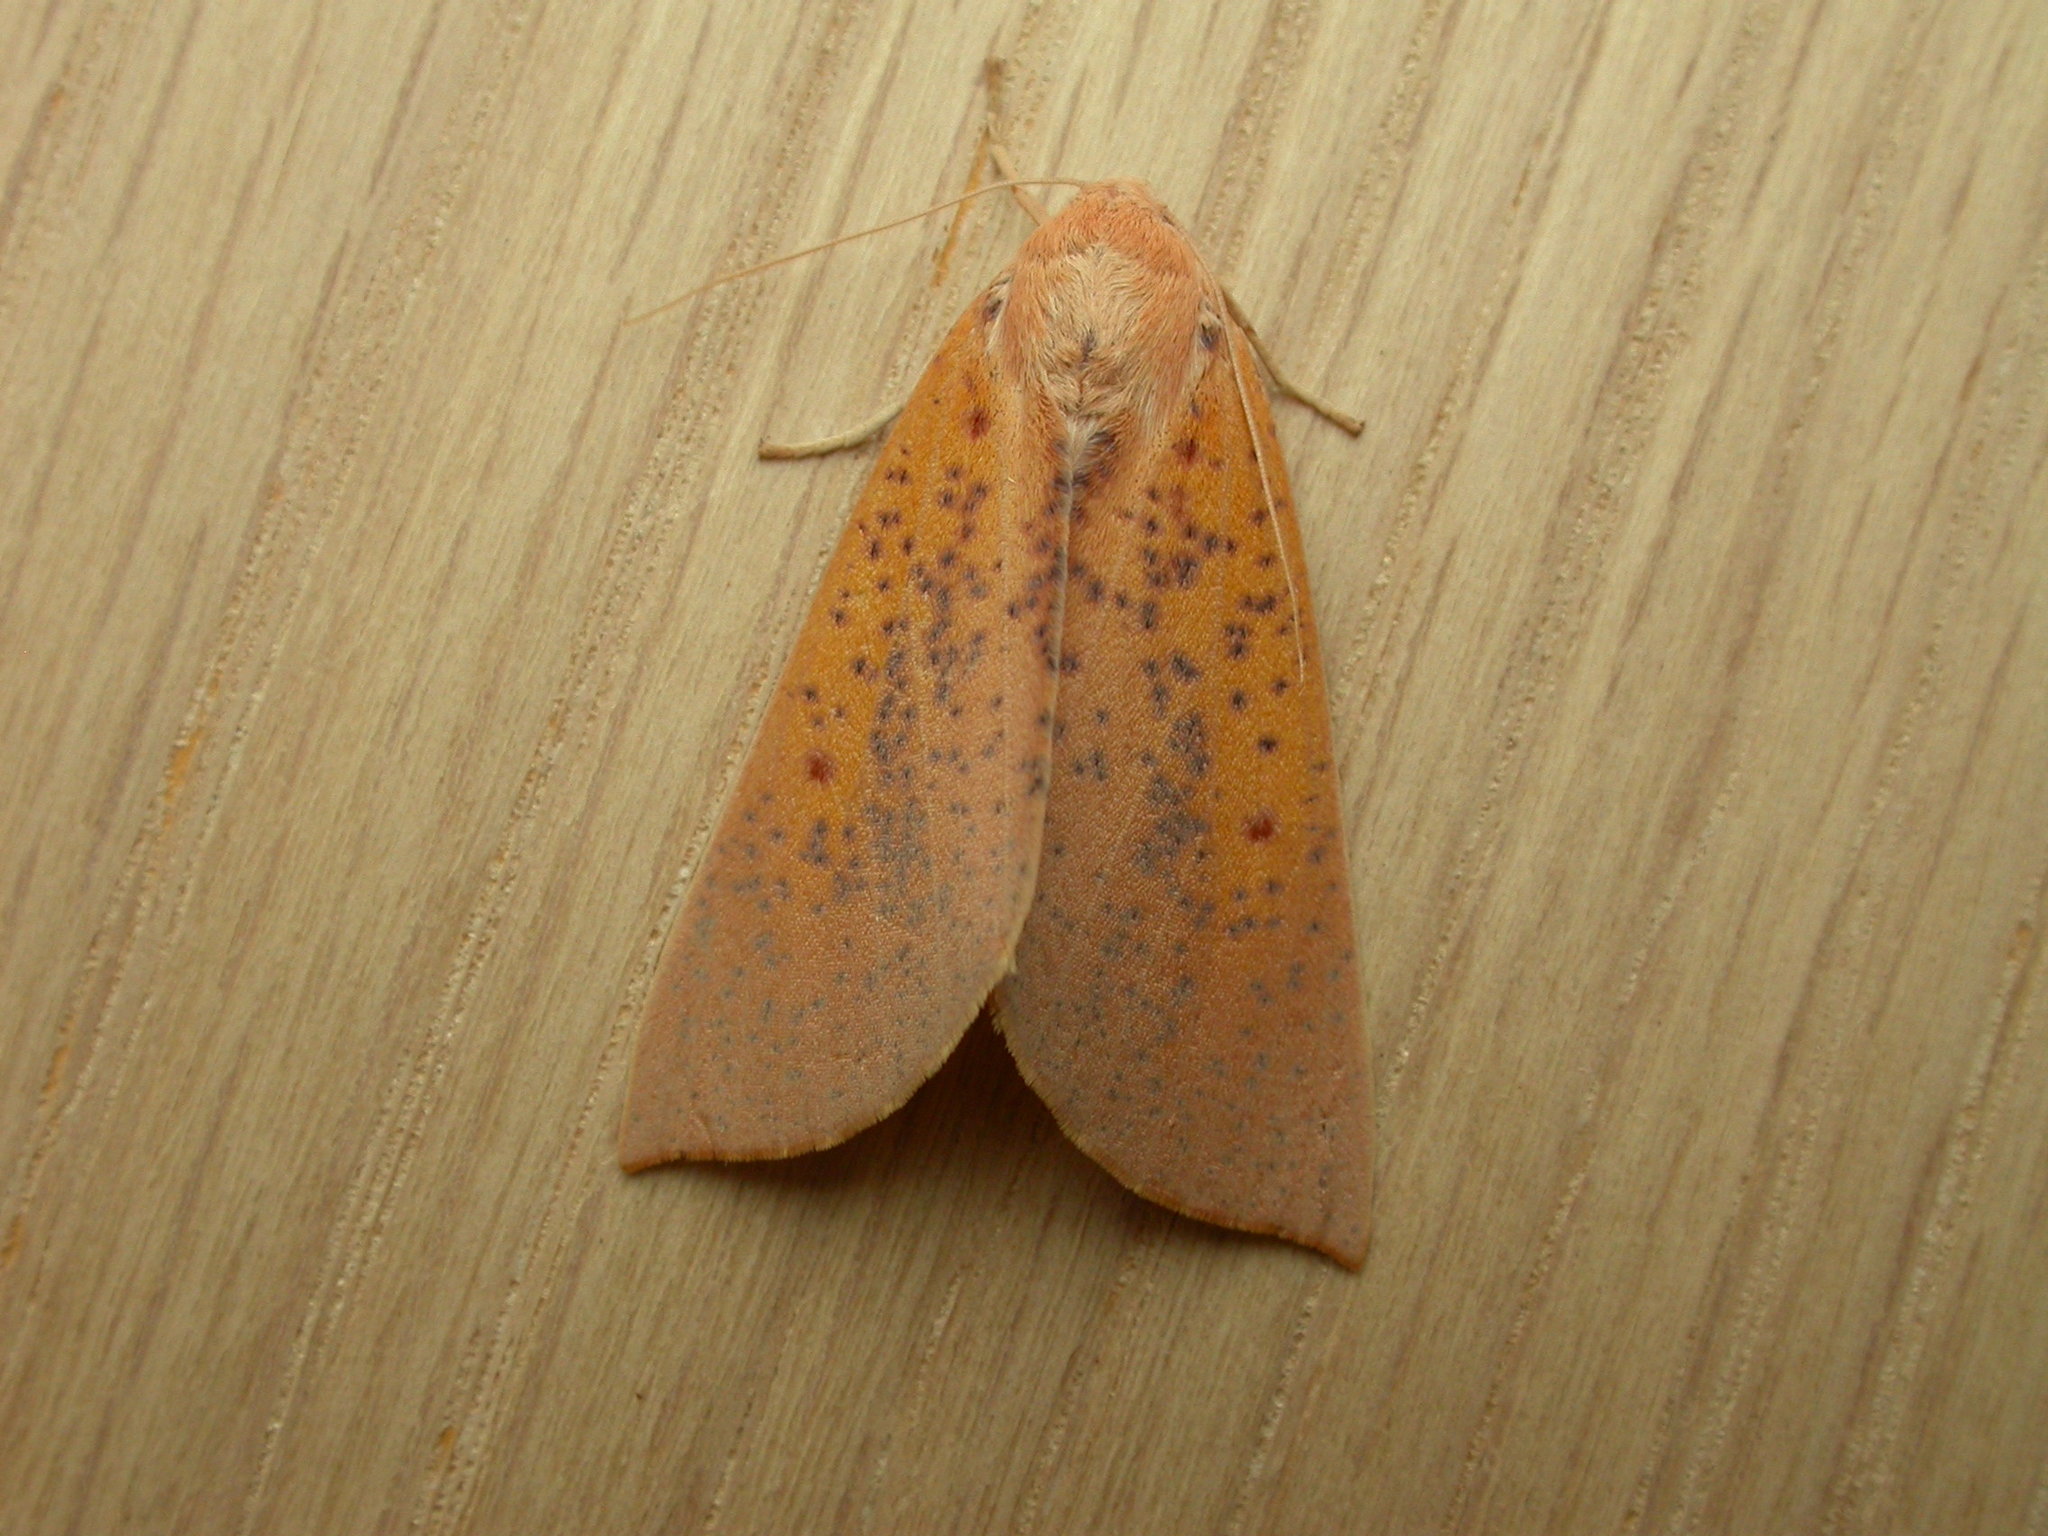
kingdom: Animalia
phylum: Arthropoda
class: Insecta
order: Lepidoptera
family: Geometridae
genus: Plesanemma
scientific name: Plesanemma fucata
